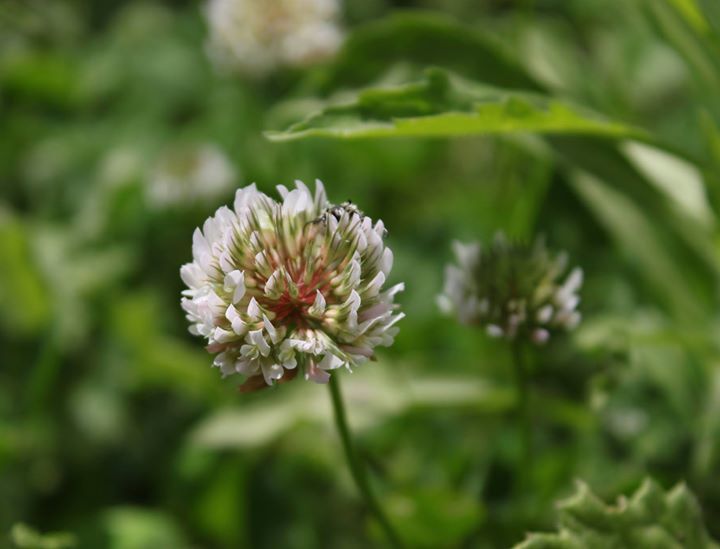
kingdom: Plantae
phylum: Tracheophyta
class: Magnoliopsida
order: Fabales
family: Fabaceae
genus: Trifolium
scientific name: Trifolium repens
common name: White clover
